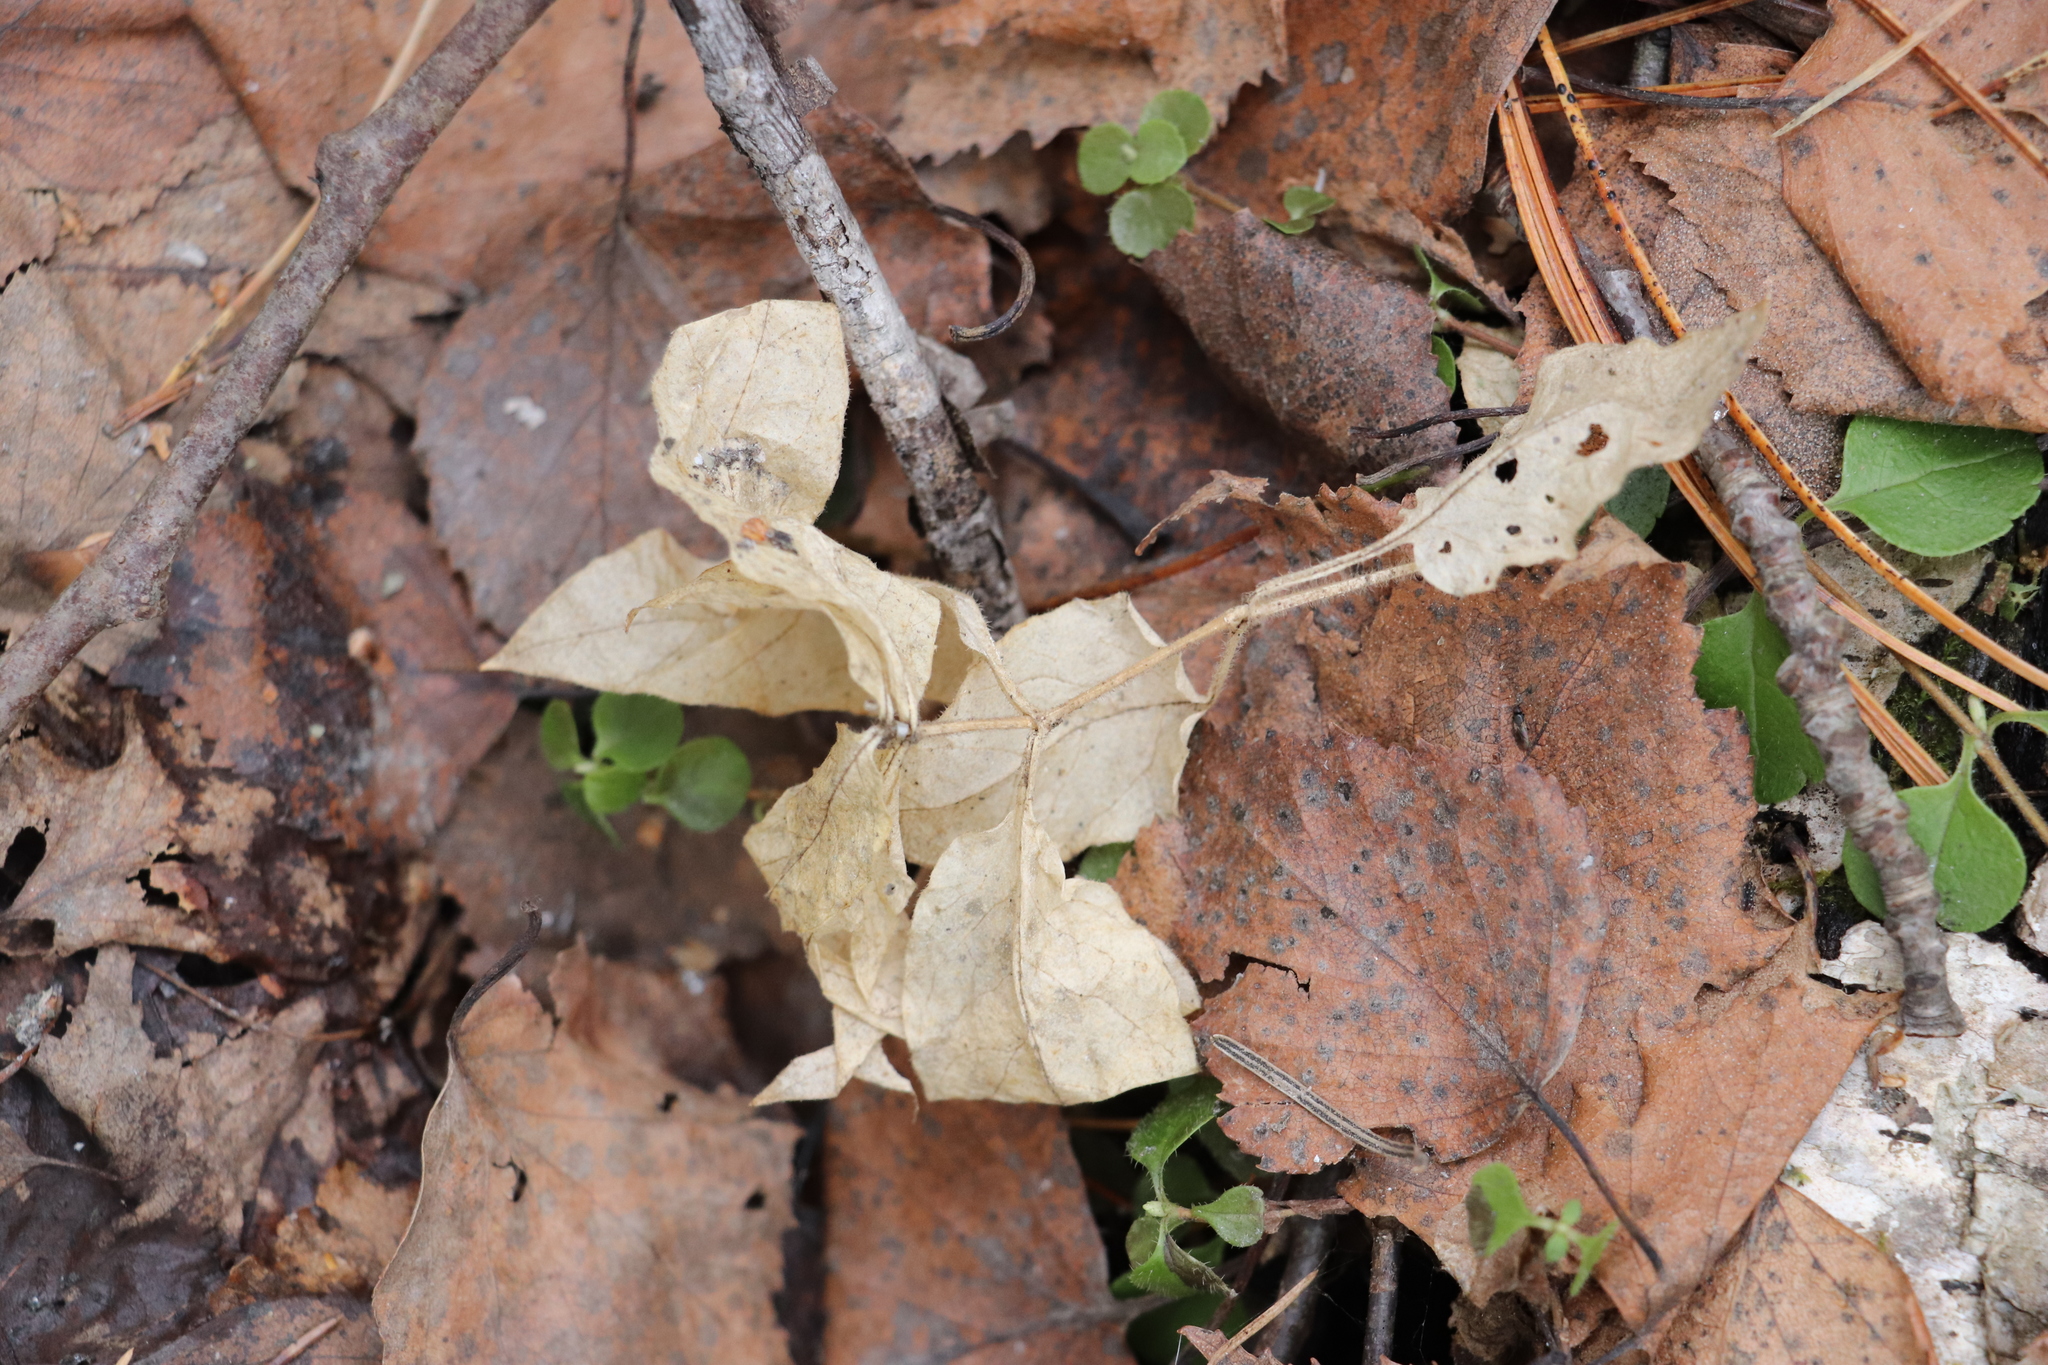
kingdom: Plantae
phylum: Tracheophyta
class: Magnoliopsida
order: Caryophyllales
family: Caryophyllaceae
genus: Stellaria
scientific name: Stellaria bungeana
